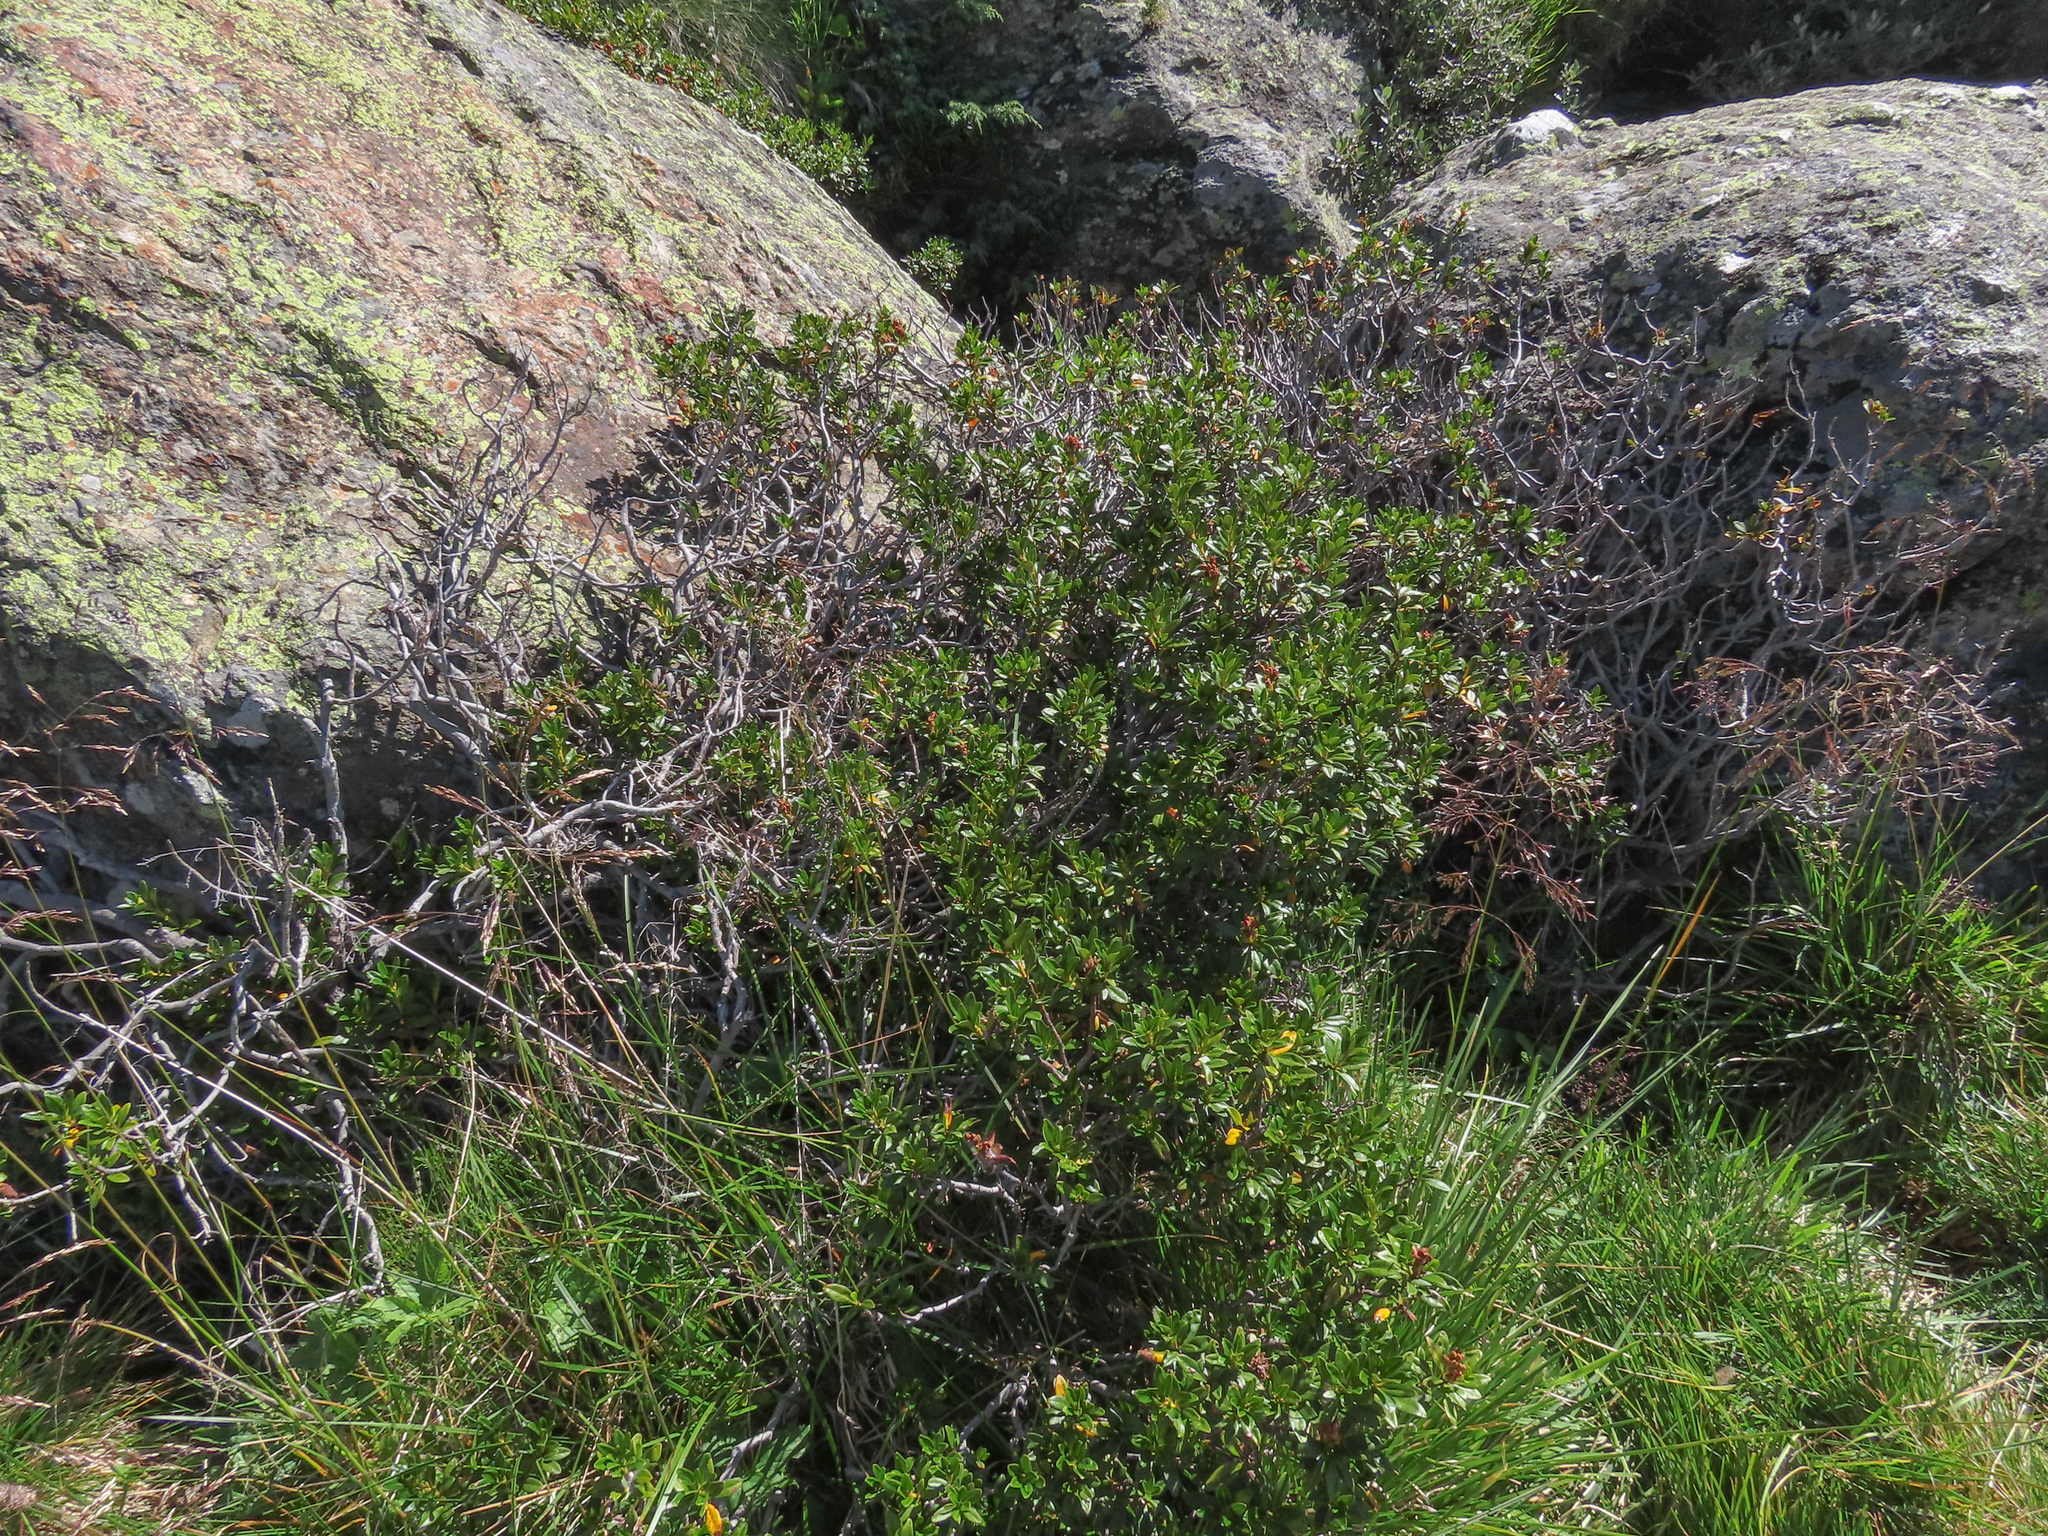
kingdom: Plantae
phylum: Tracheophyta
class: Magnoliopsida
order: Ericales
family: Ericaceae
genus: Rhododendron
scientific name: Rhododendron ferrugineum
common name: Alpenrose
